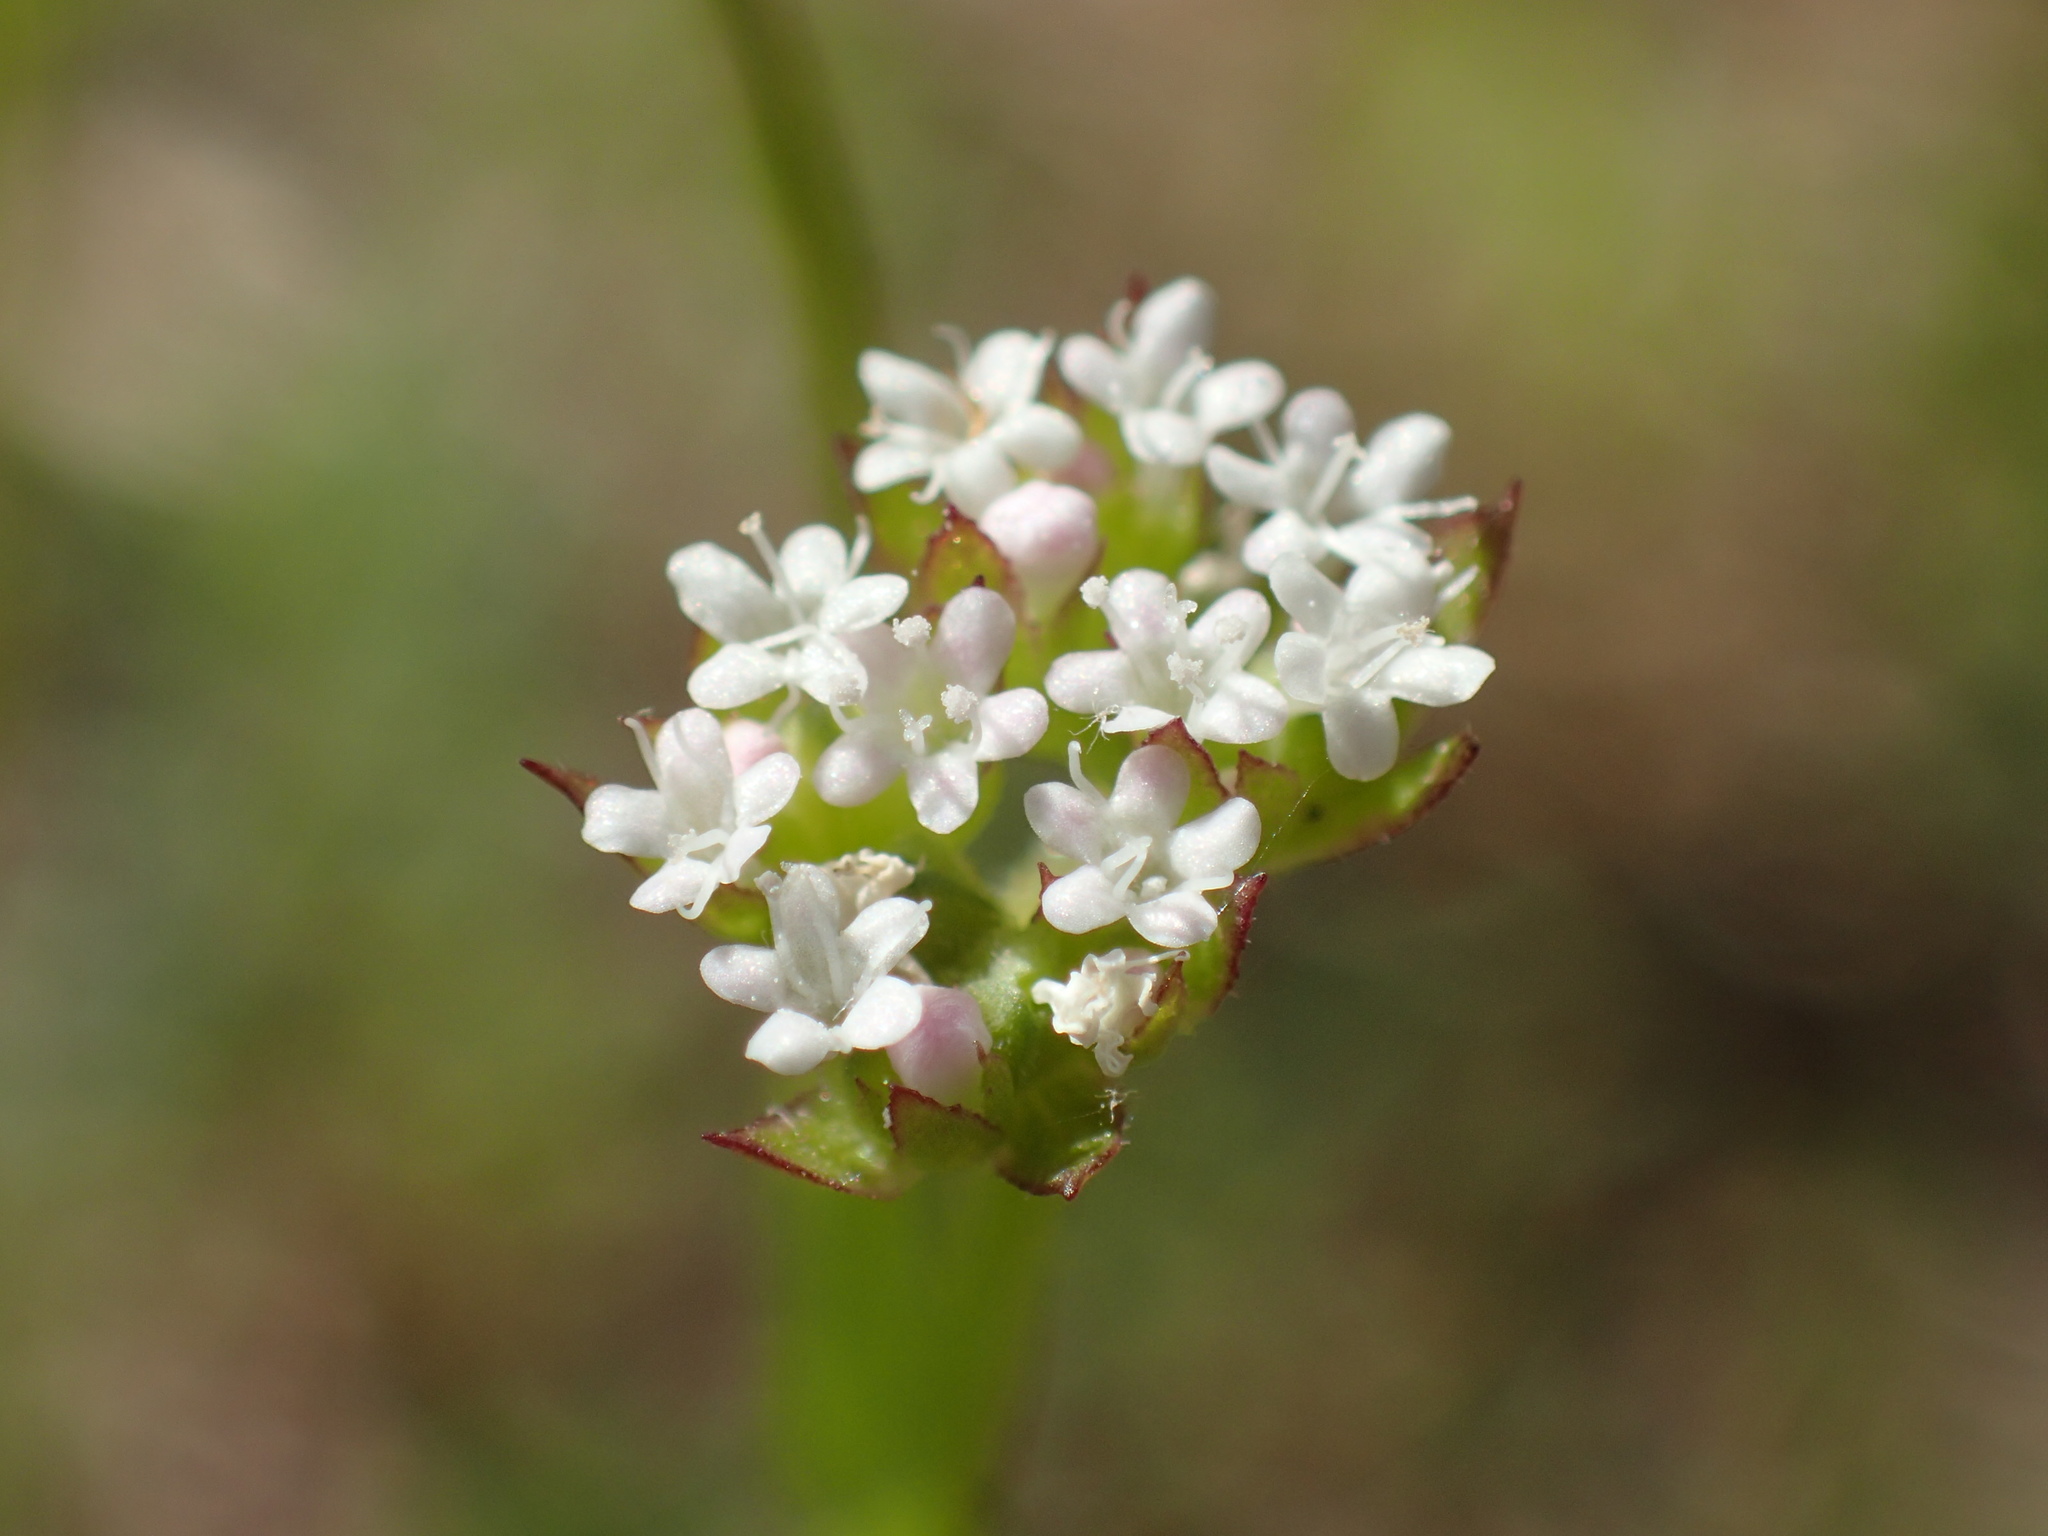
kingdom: Plantae
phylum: Tracheophyta
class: Magnoliopsida
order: Dipsacales
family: Caprifoliaceae
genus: Valerianella
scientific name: Valerianella radiata
